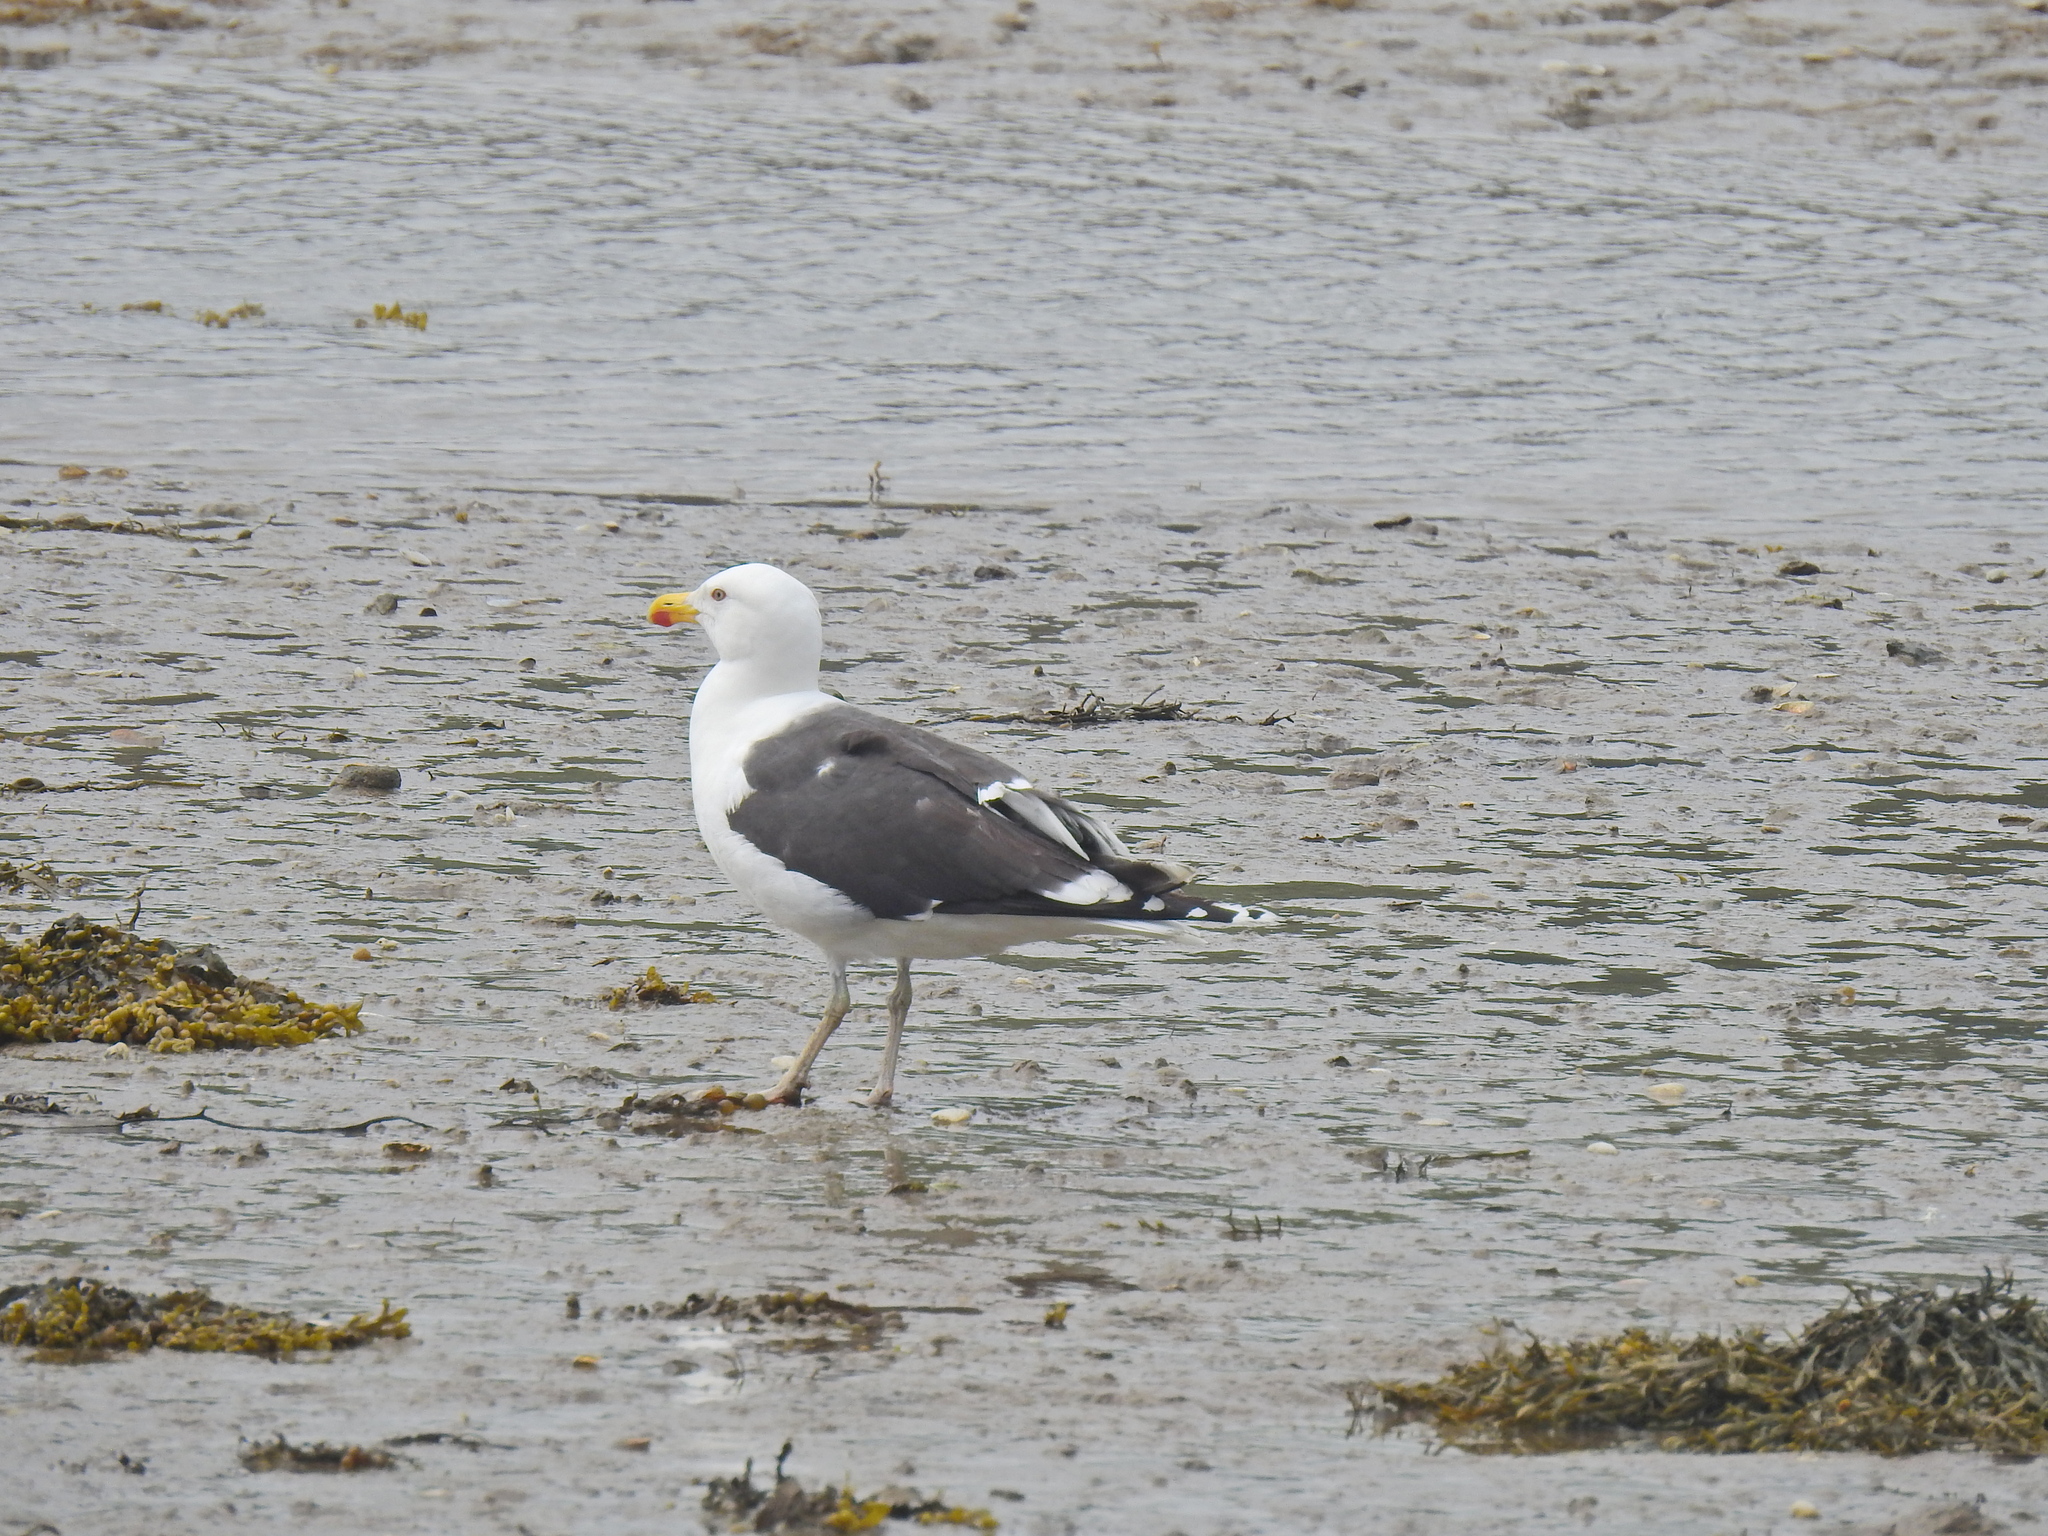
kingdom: Animalia
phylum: Chordata
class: Aves
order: Charadriiformes
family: Laridae
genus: Larus
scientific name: Larus fuscus
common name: Lesser black-backed gull
